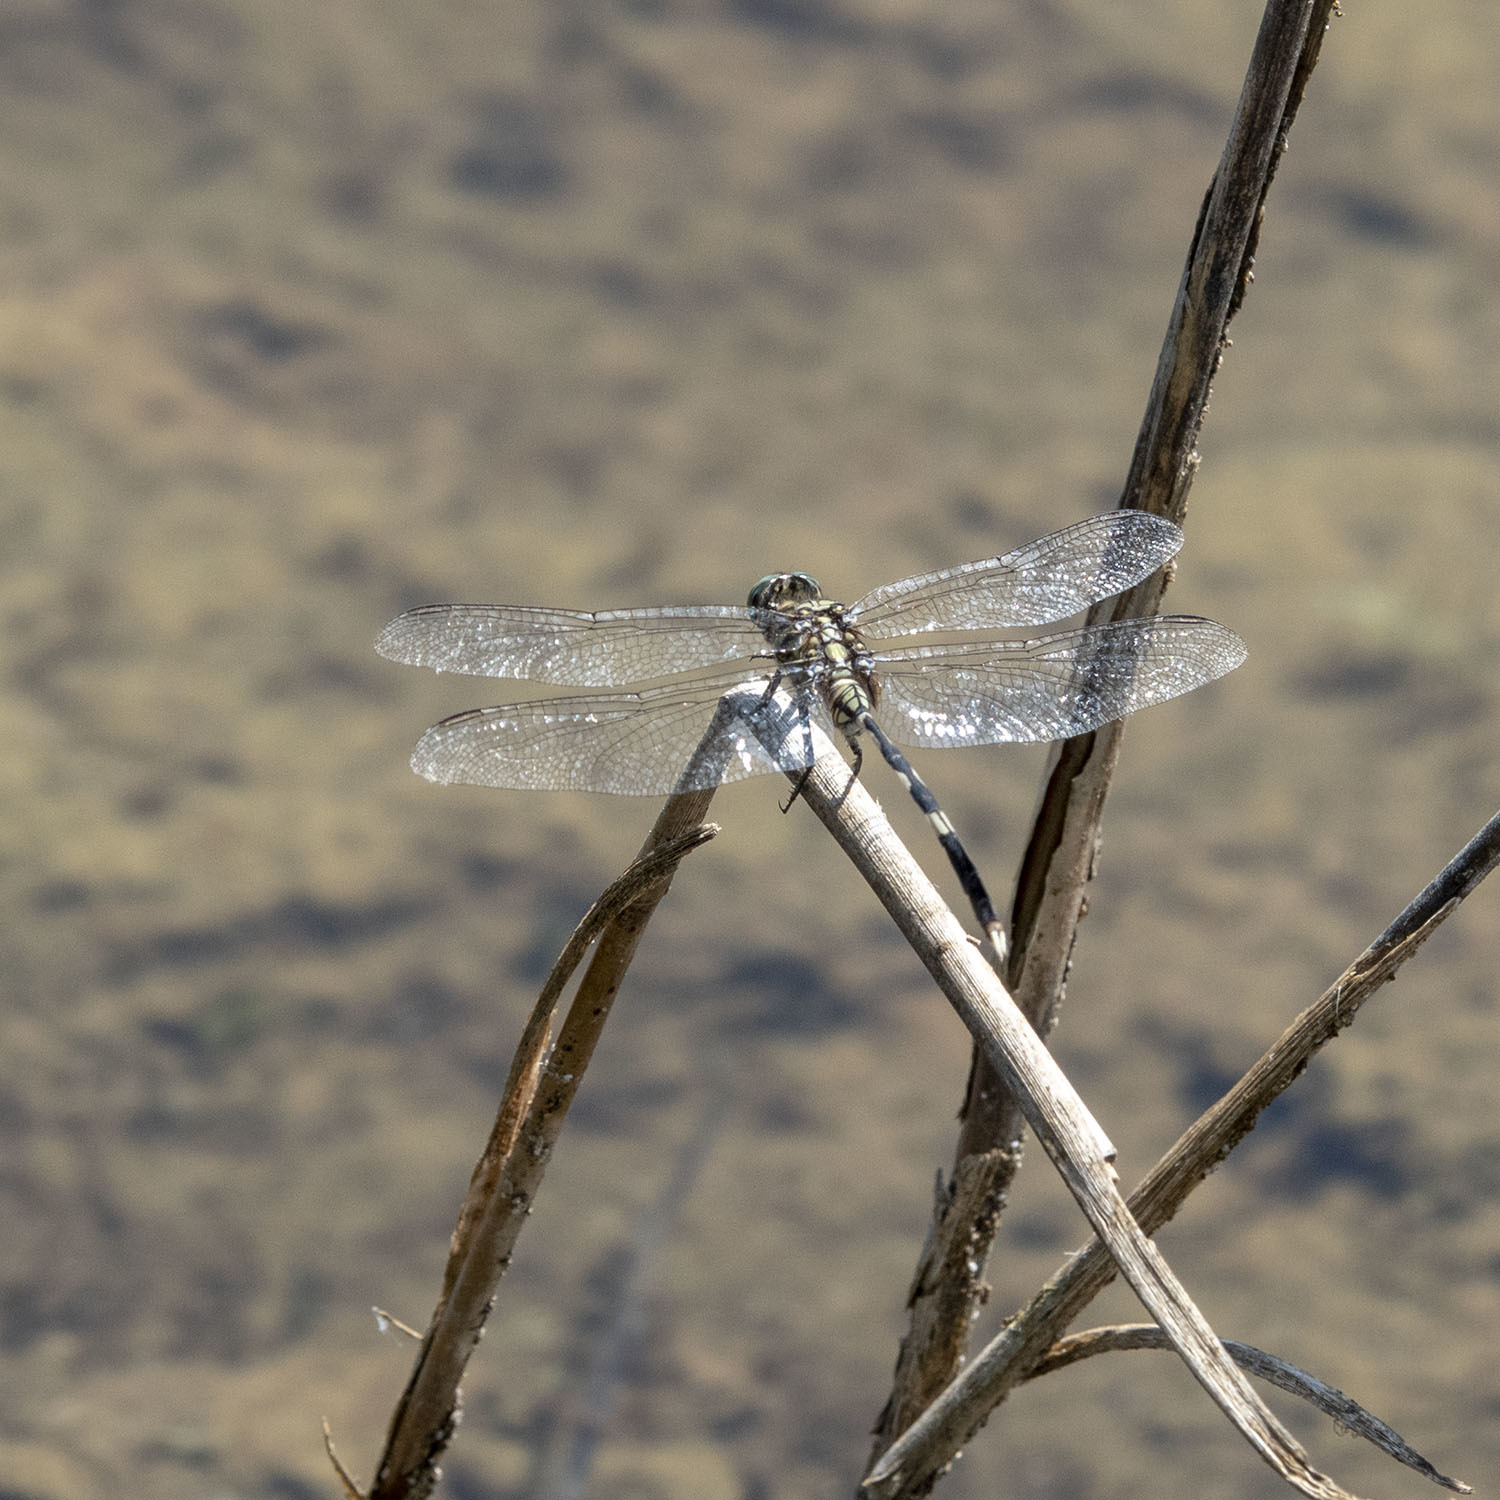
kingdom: Animalia
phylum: Arthropoda
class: Insecta
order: Odonata
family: Libellulidae
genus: Orthetrum
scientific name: Orthetrum sabina
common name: Slender skimmer
